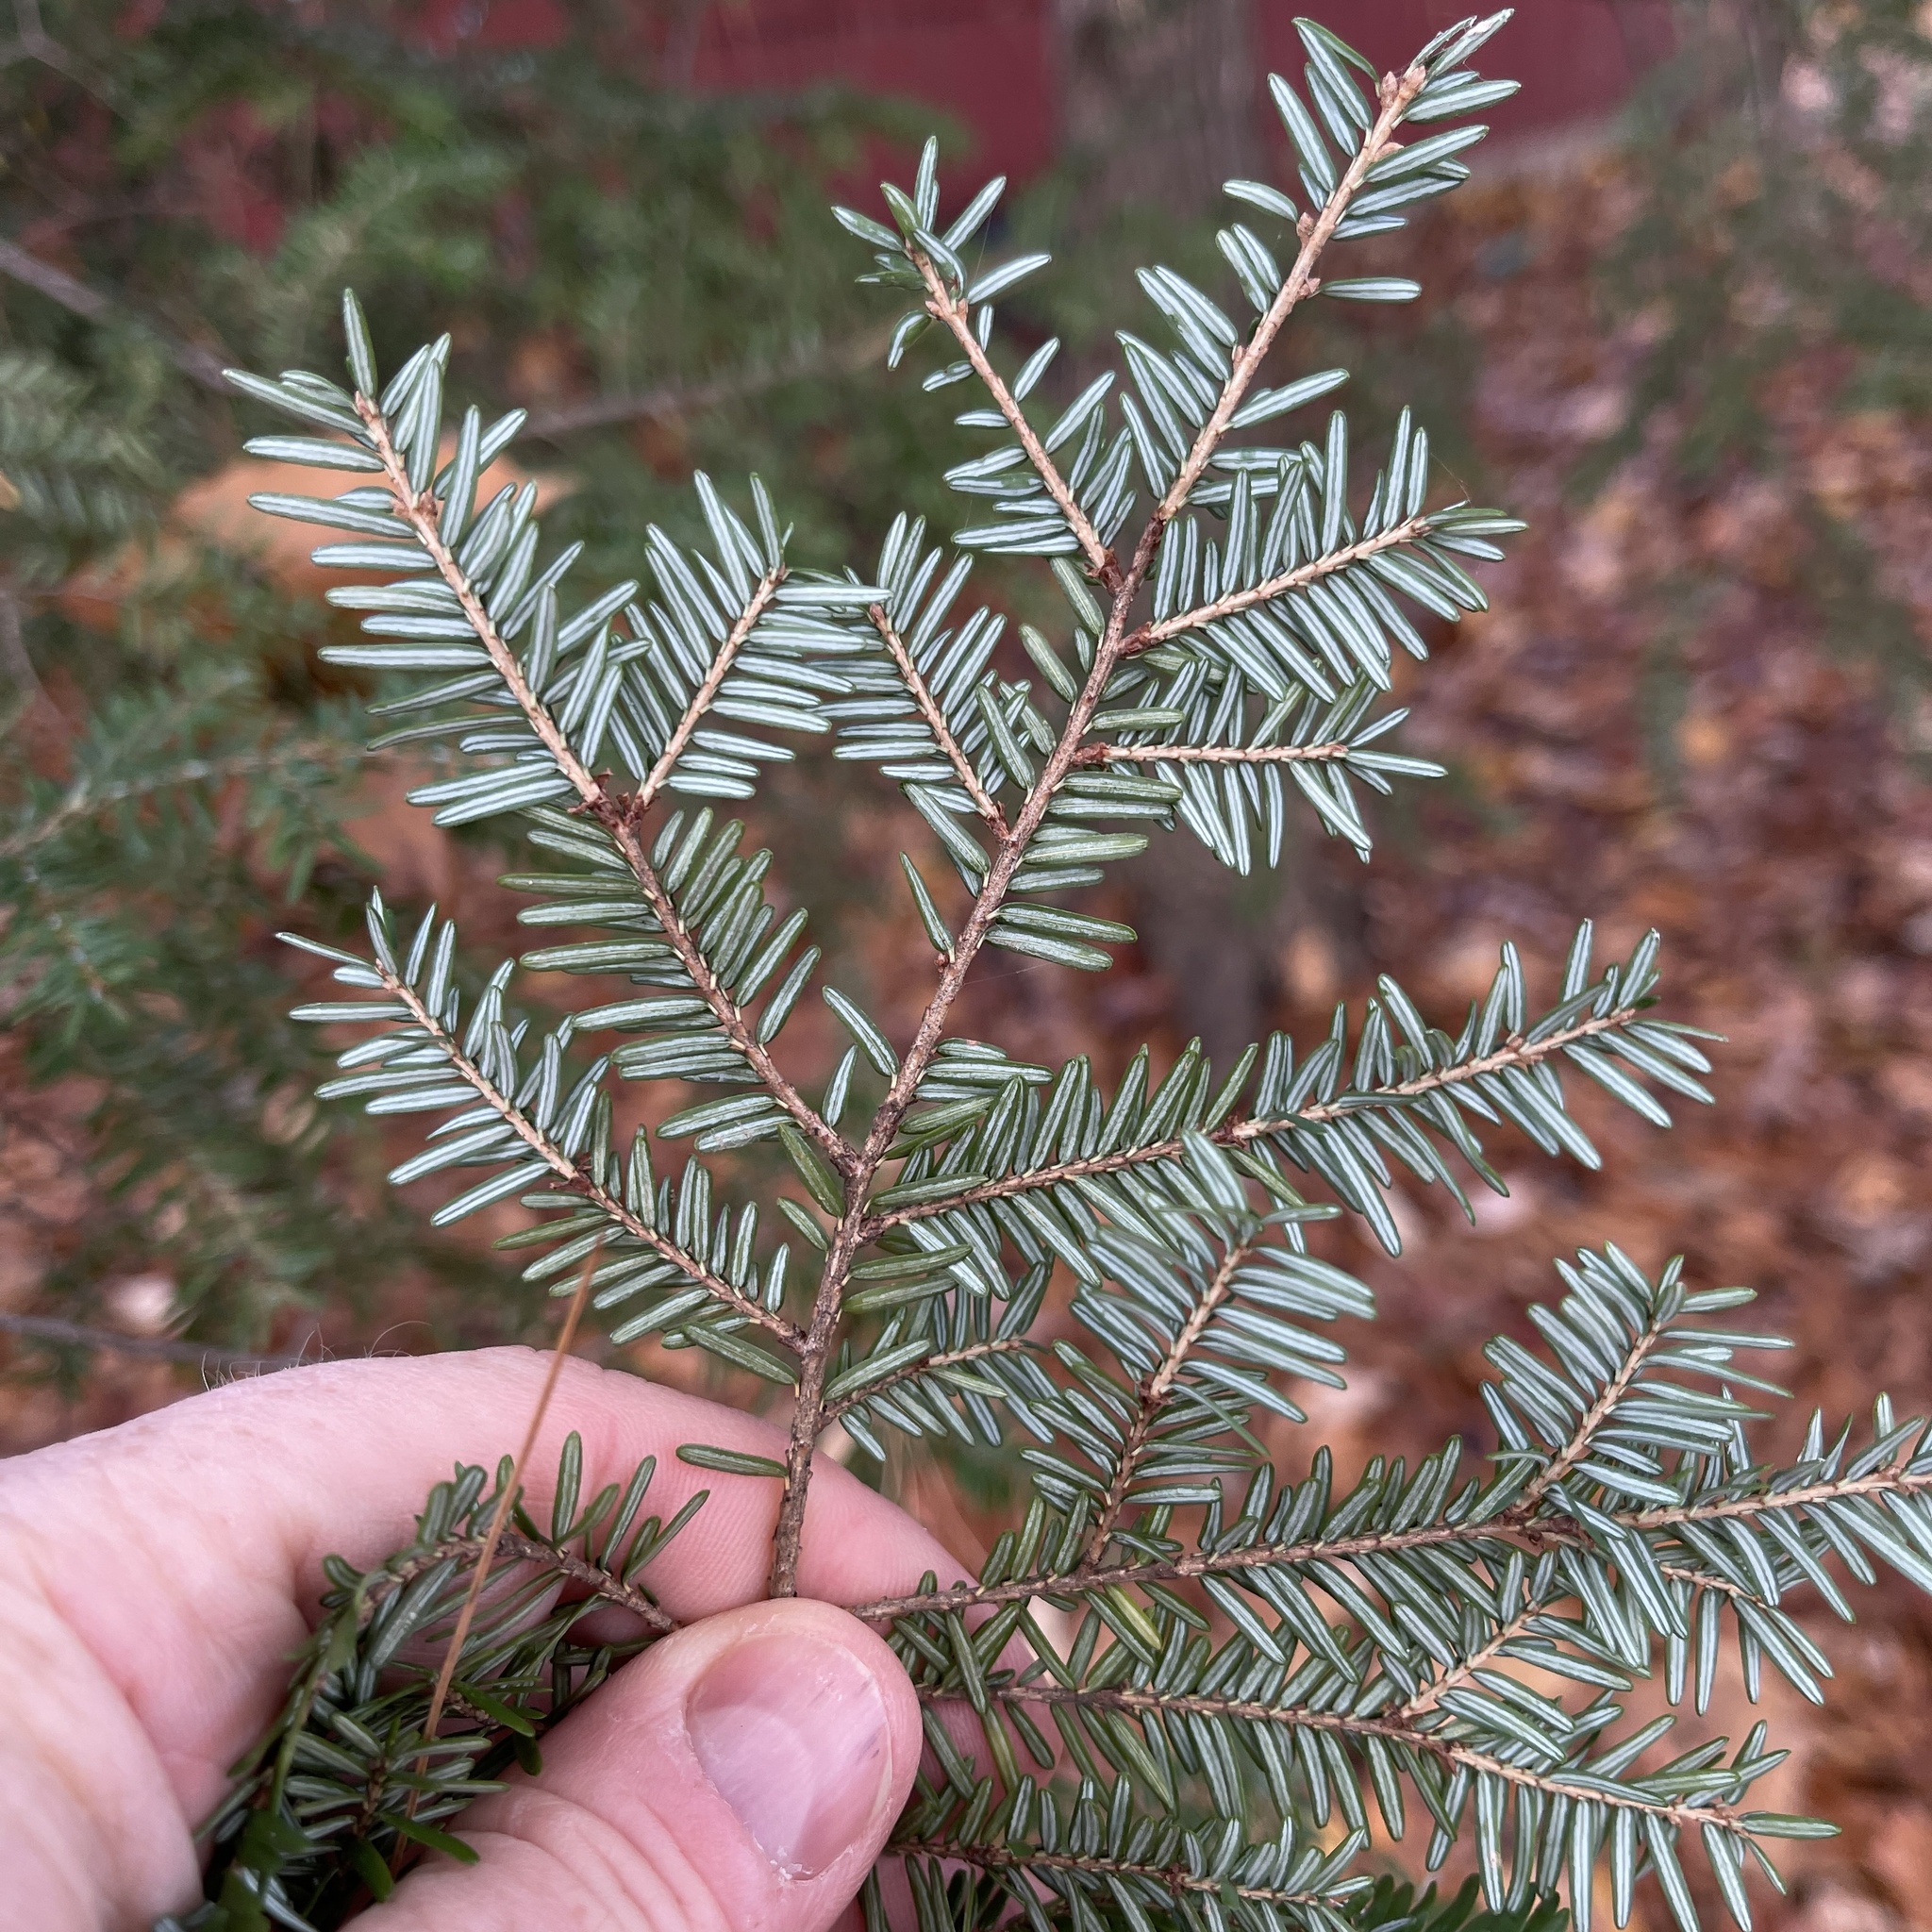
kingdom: Plantae
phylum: Tracheophyta
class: Pinopsida
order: Pinales
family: Pinaceae
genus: Tsuga
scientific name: Tsuga canadensis
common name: Eastern hemlock
